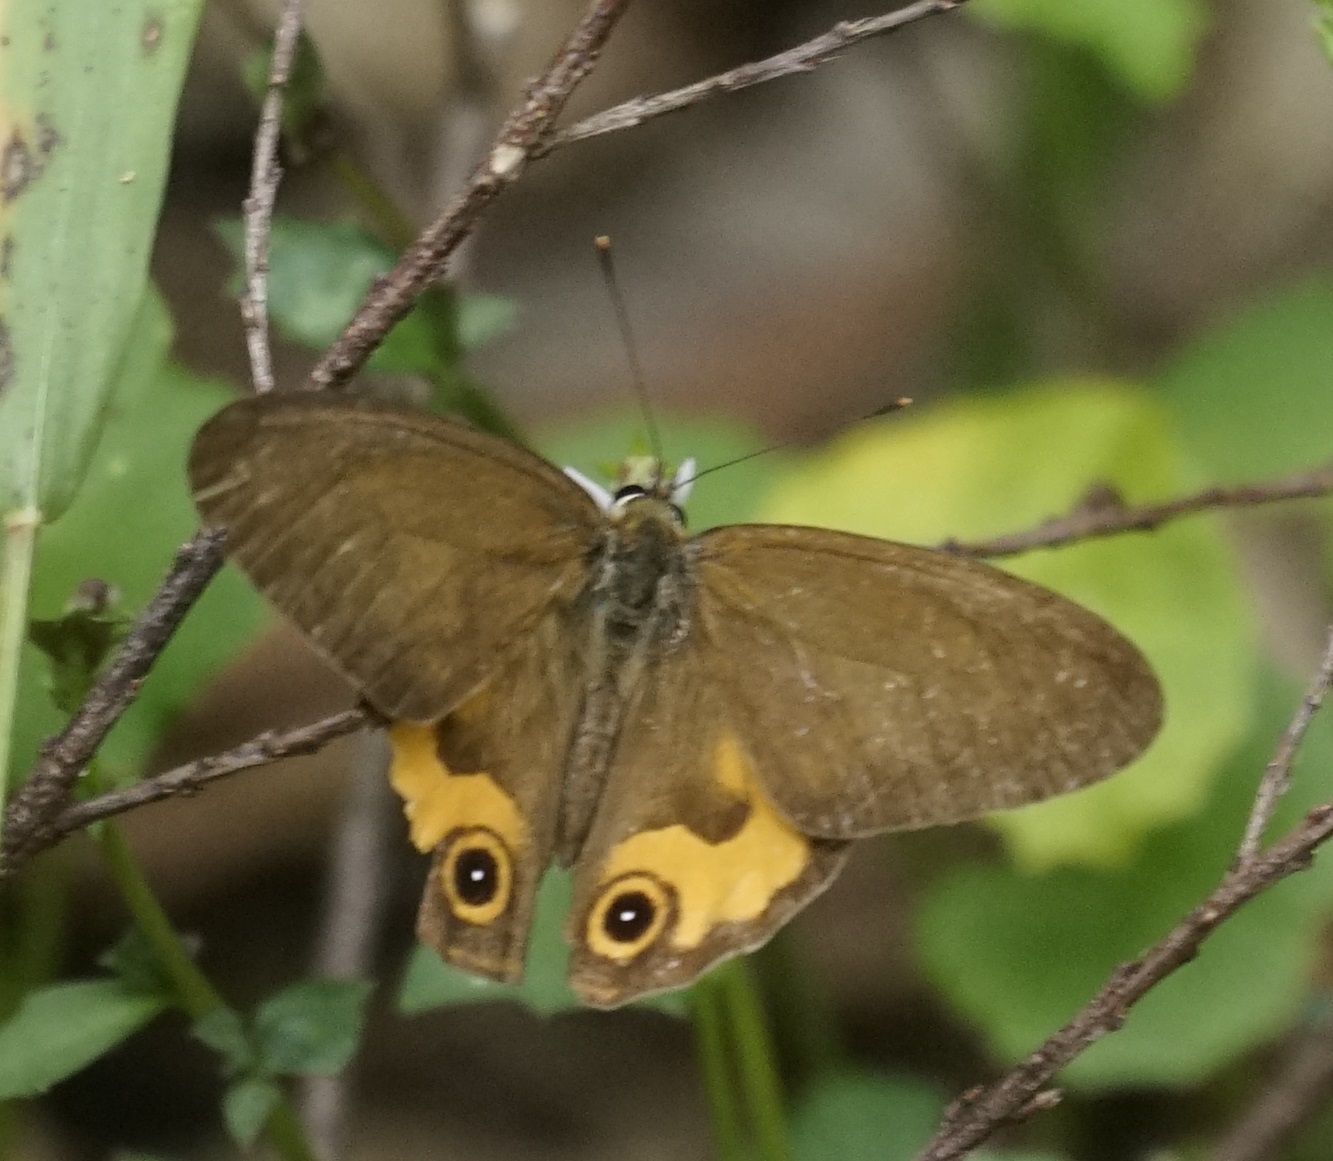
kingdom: Animalia
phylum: Arthropoda
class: Insecta
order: Lepidoptera
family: Nymphalidae
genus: Hypocysta
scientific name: Hypocysta metirius
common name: Brown ringlet
